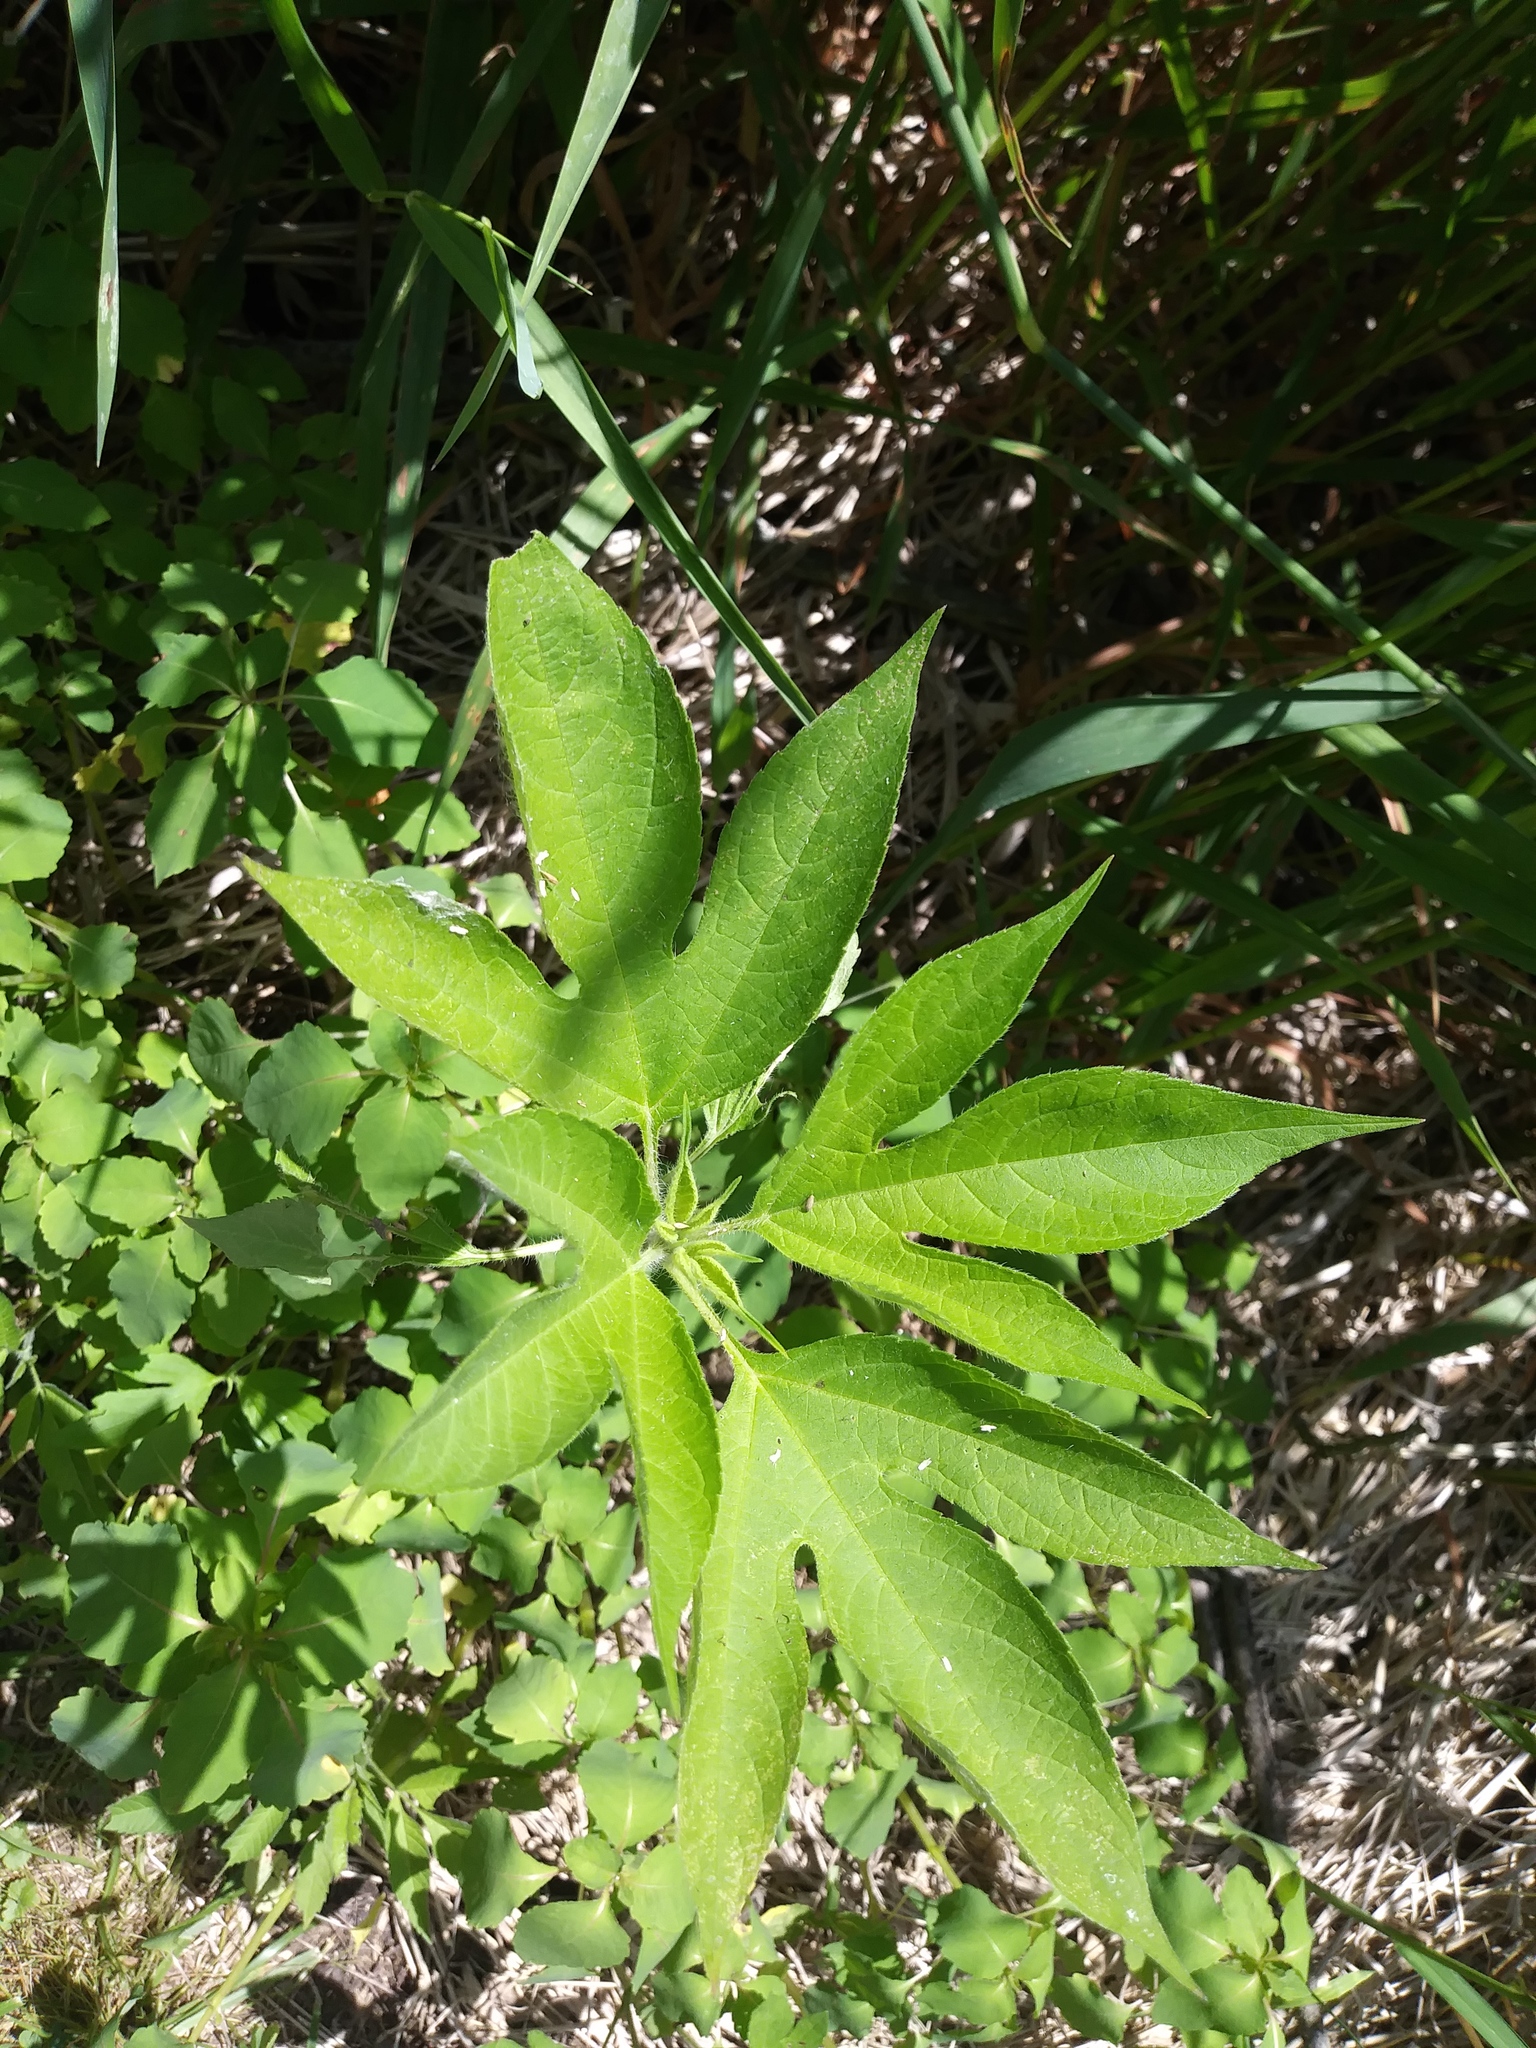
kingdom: Plantae
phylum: Tracheophyta
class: Magnoliopsida
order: Asterales
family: Asteraceae
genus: Ambrosia
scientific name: Ambrosia trifida
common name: Giant ragweed
